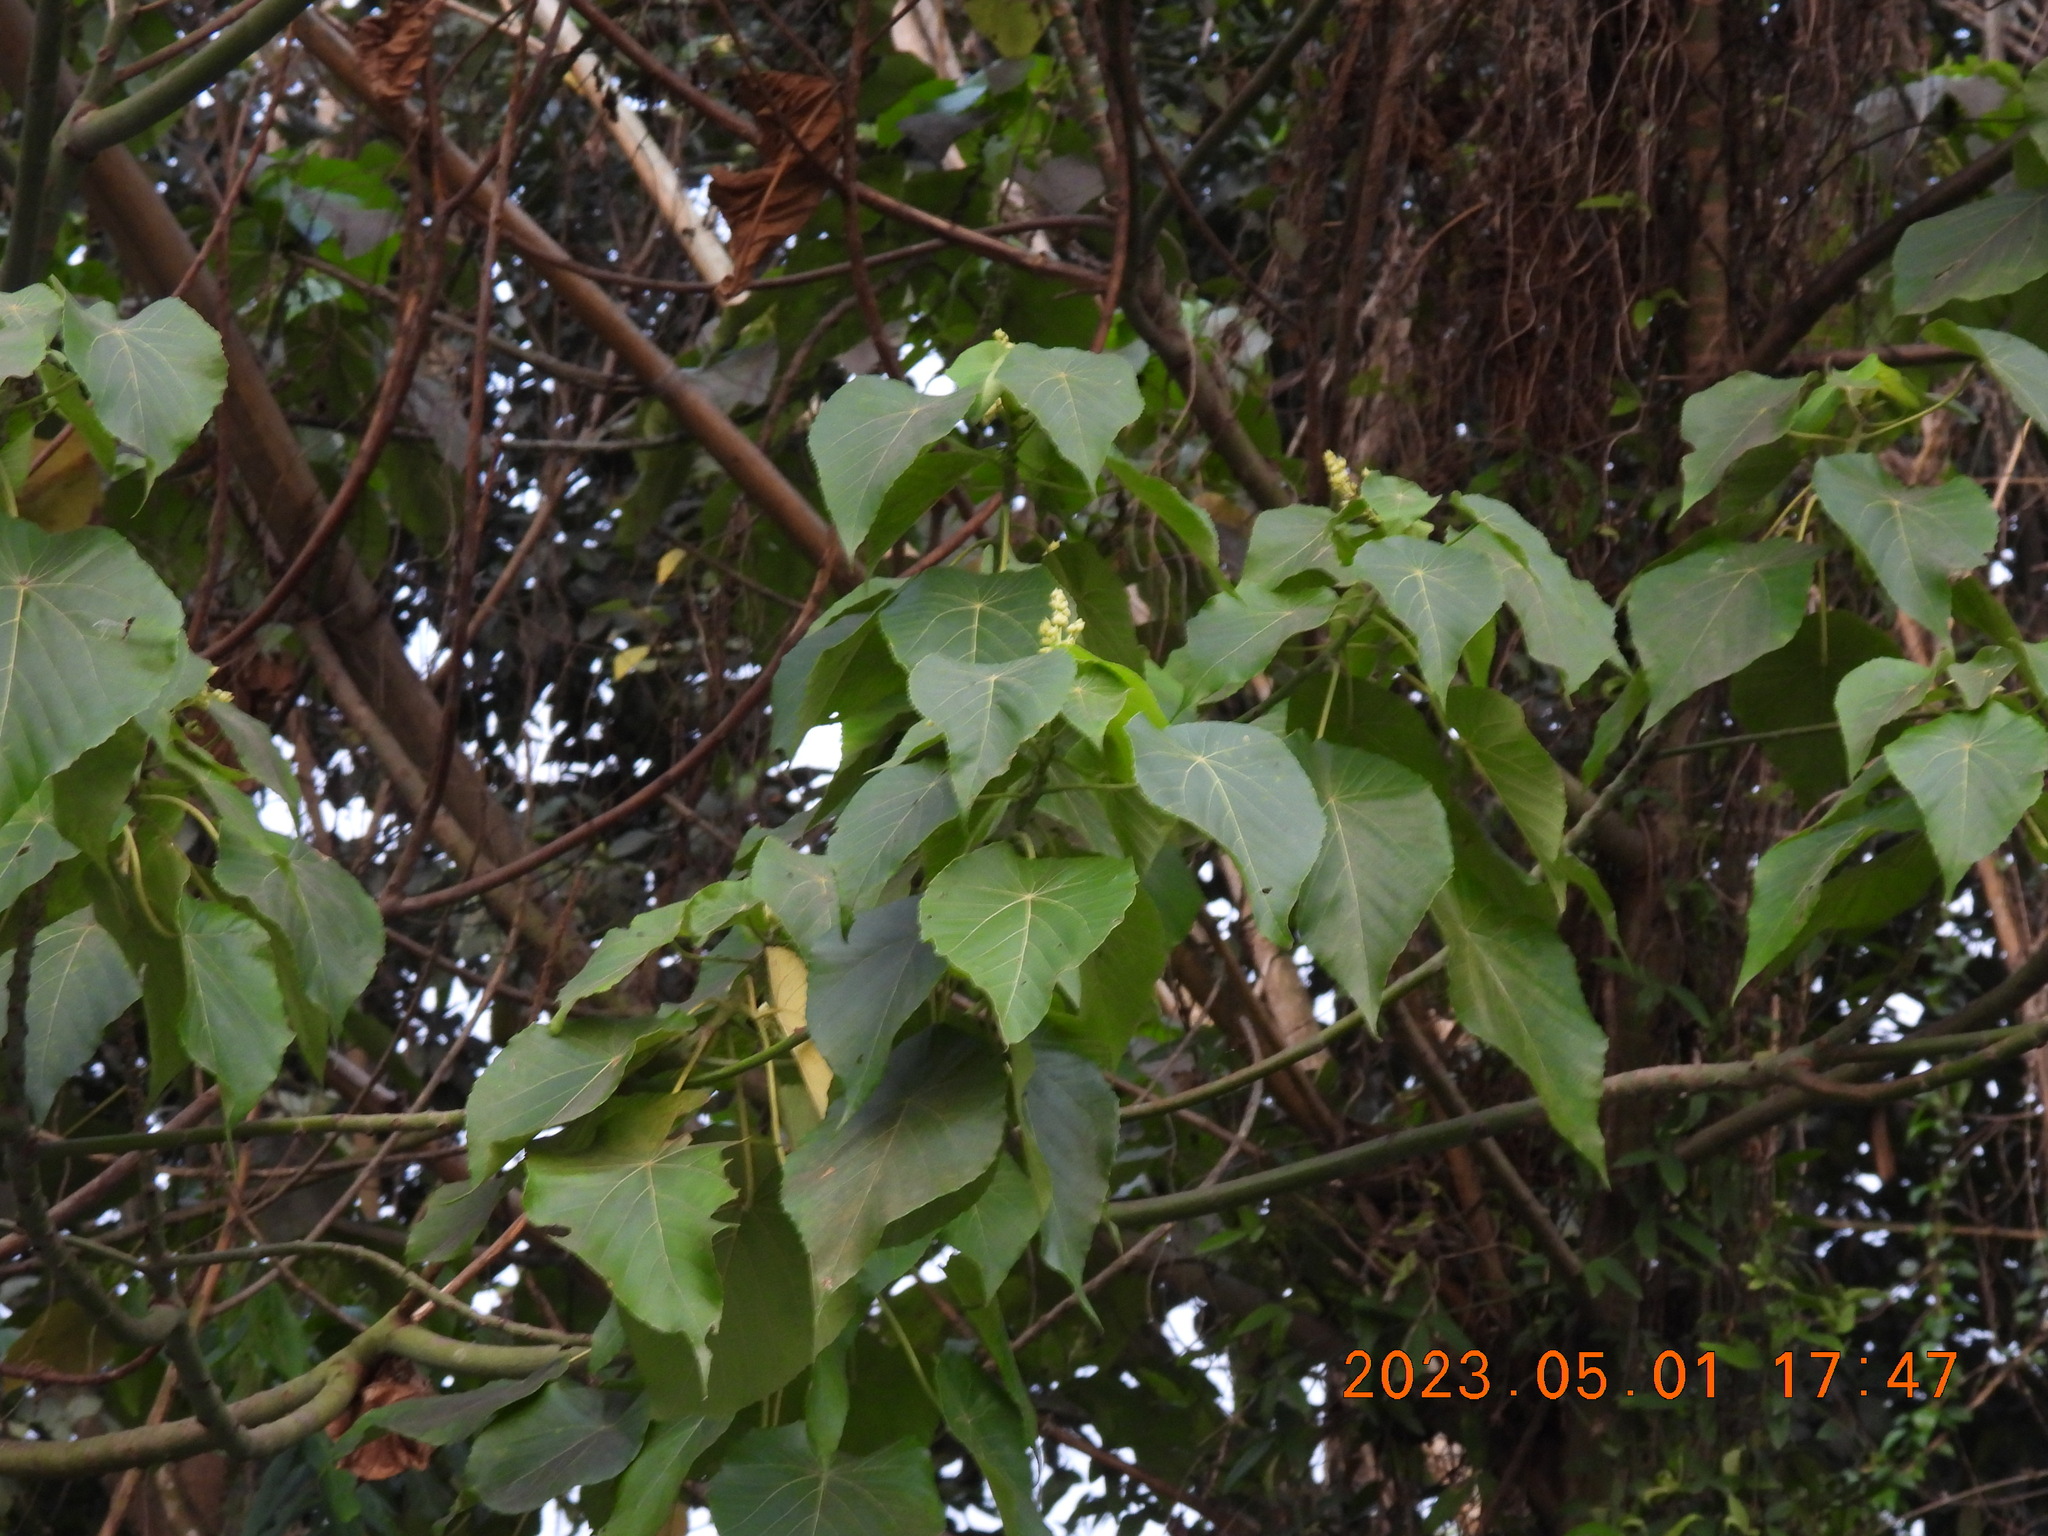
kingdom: Plantae
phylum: Tracheophyta
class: Magnoliopsida
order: Malpighiales
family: Euphorbiaceae
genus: Macaranga
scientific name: Macaranga tanarius
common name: Parasol leaf tree
